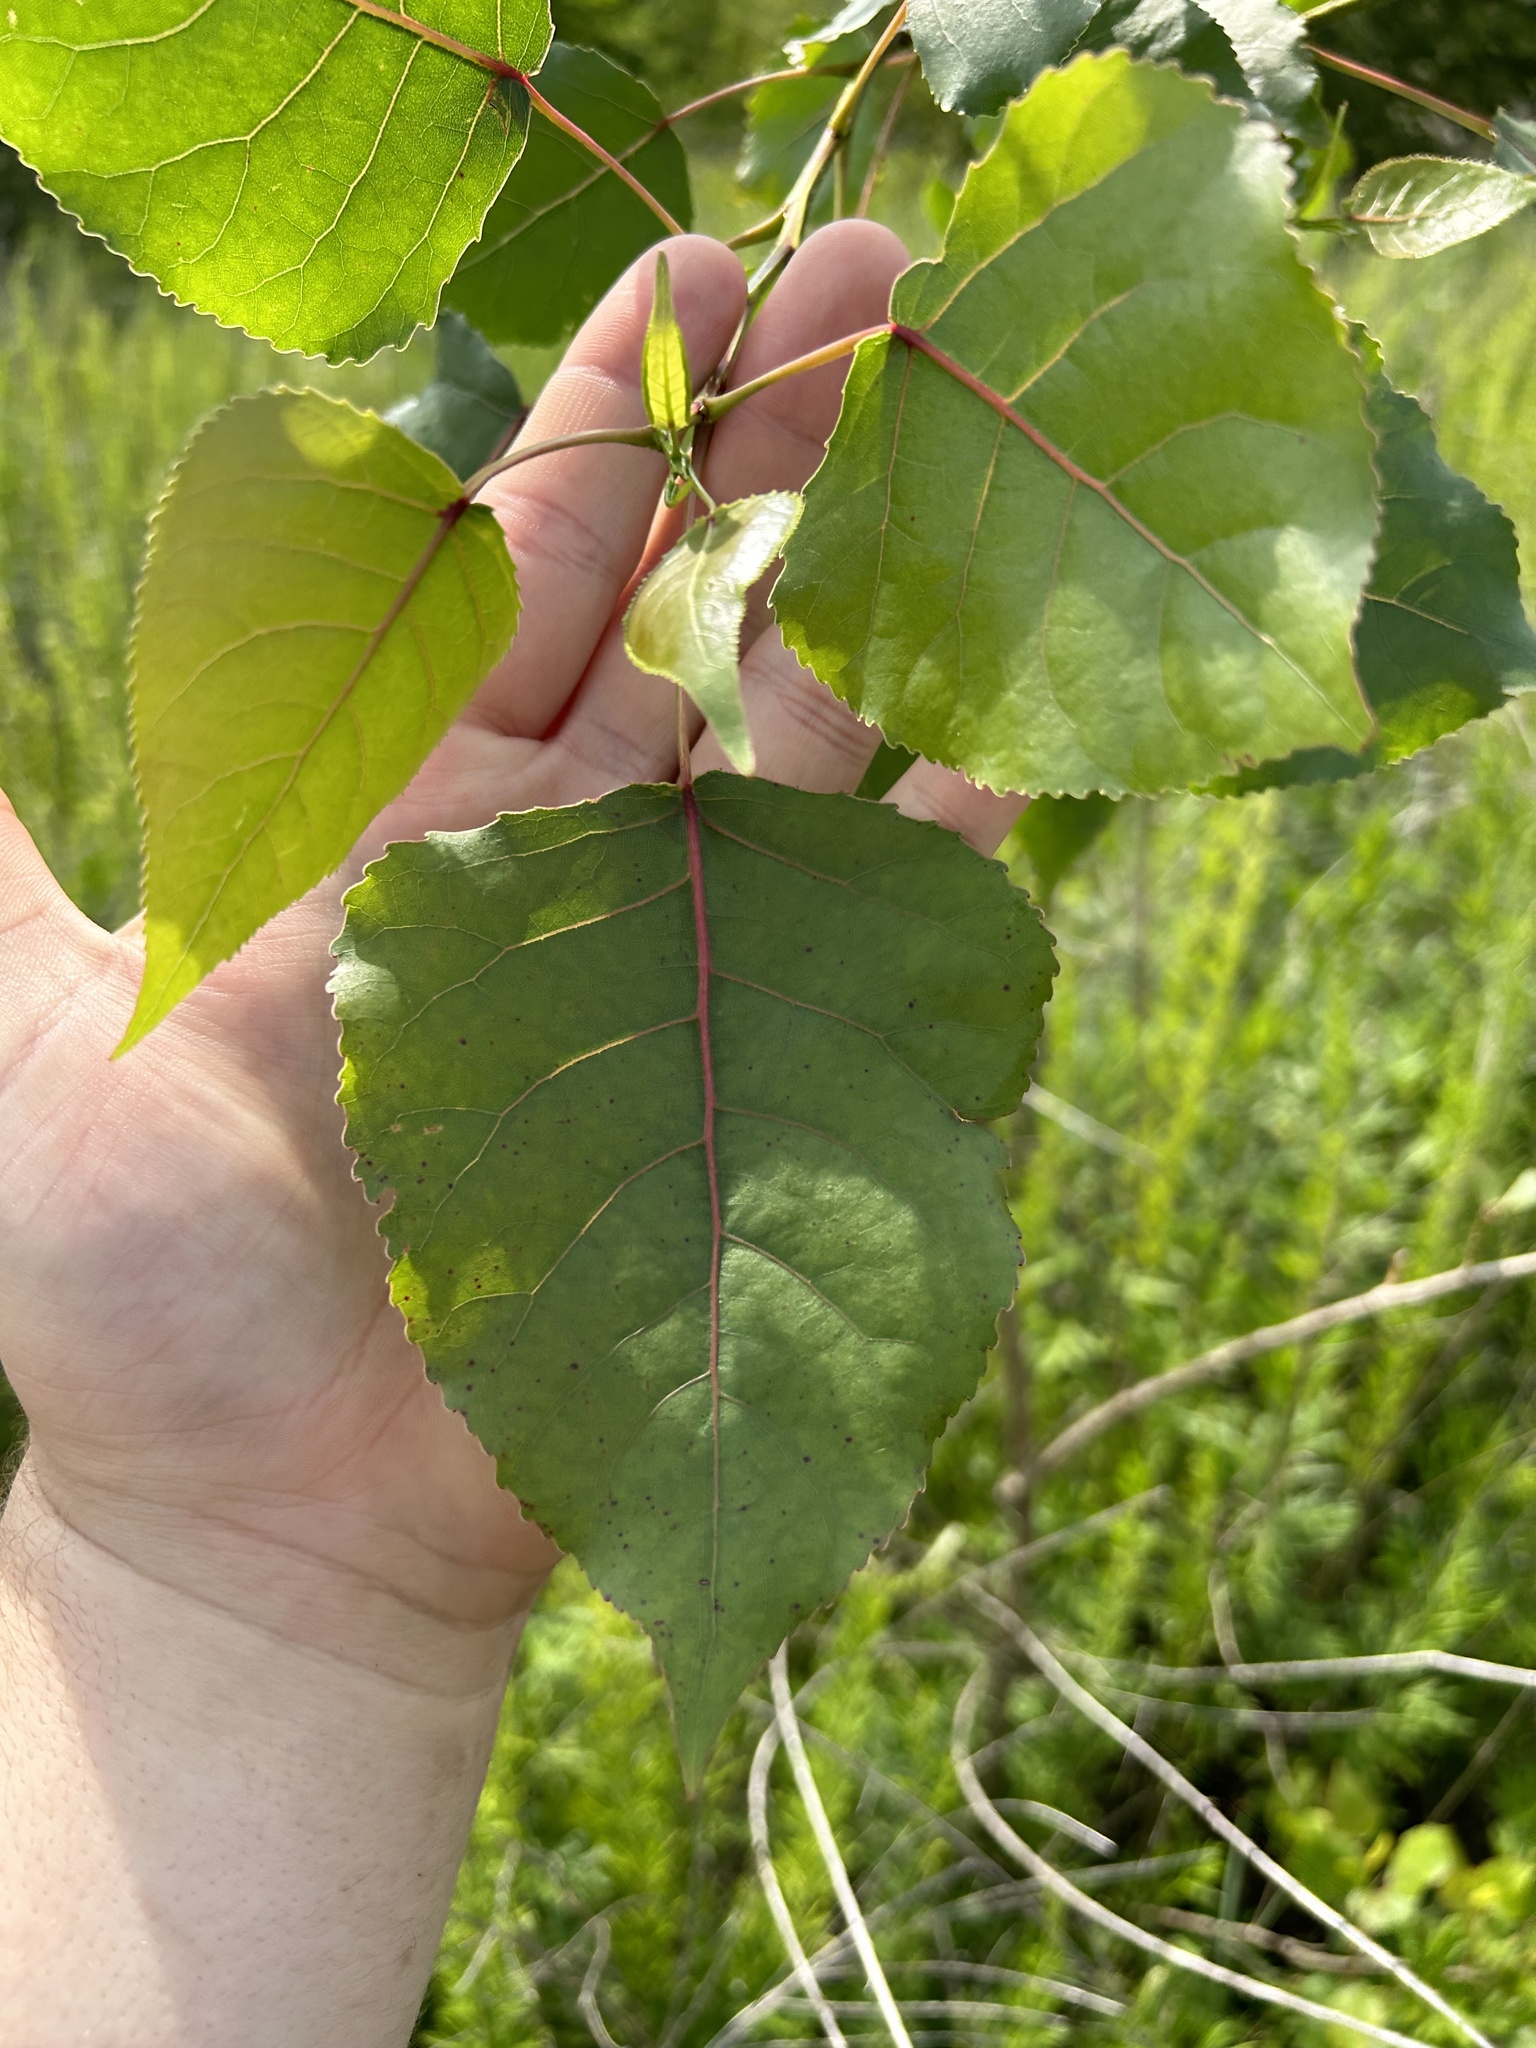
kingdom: Plantae
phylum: Tracheophyta
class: Magnoliopsida
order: Malpighiales
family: Salicaceae
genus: Populus
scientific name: Populus deltoides
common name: Eastern cottonwood
